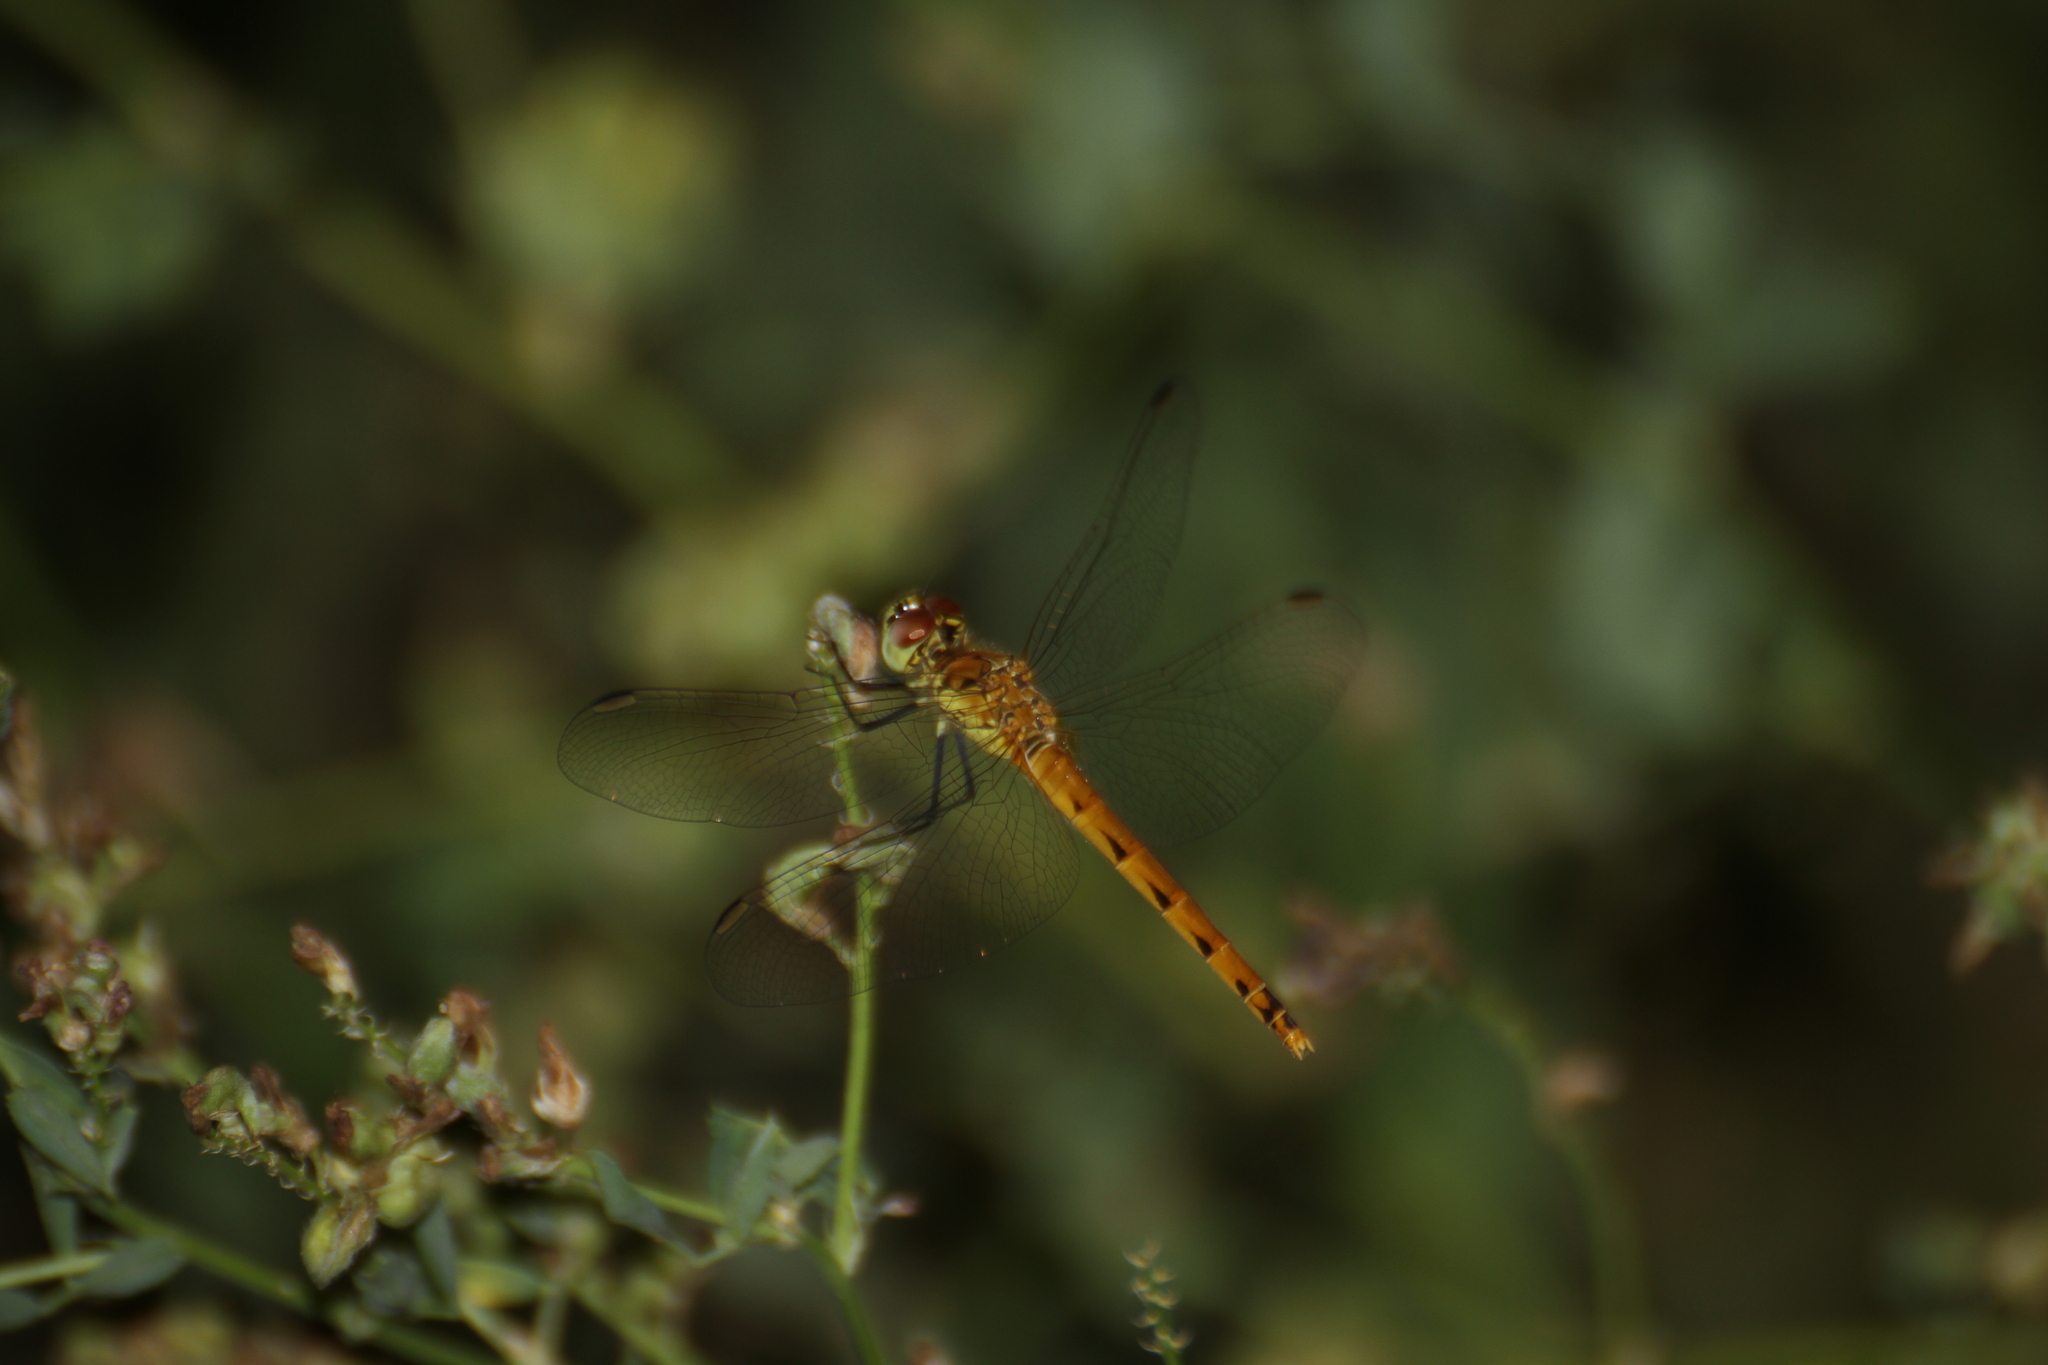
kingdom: Animalia
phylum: Arthropoda
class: Insecta
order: Odonata
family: Libellulidae
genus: Sympetrum
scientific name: Sympetrum depressiusculum
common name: Spotted darter
